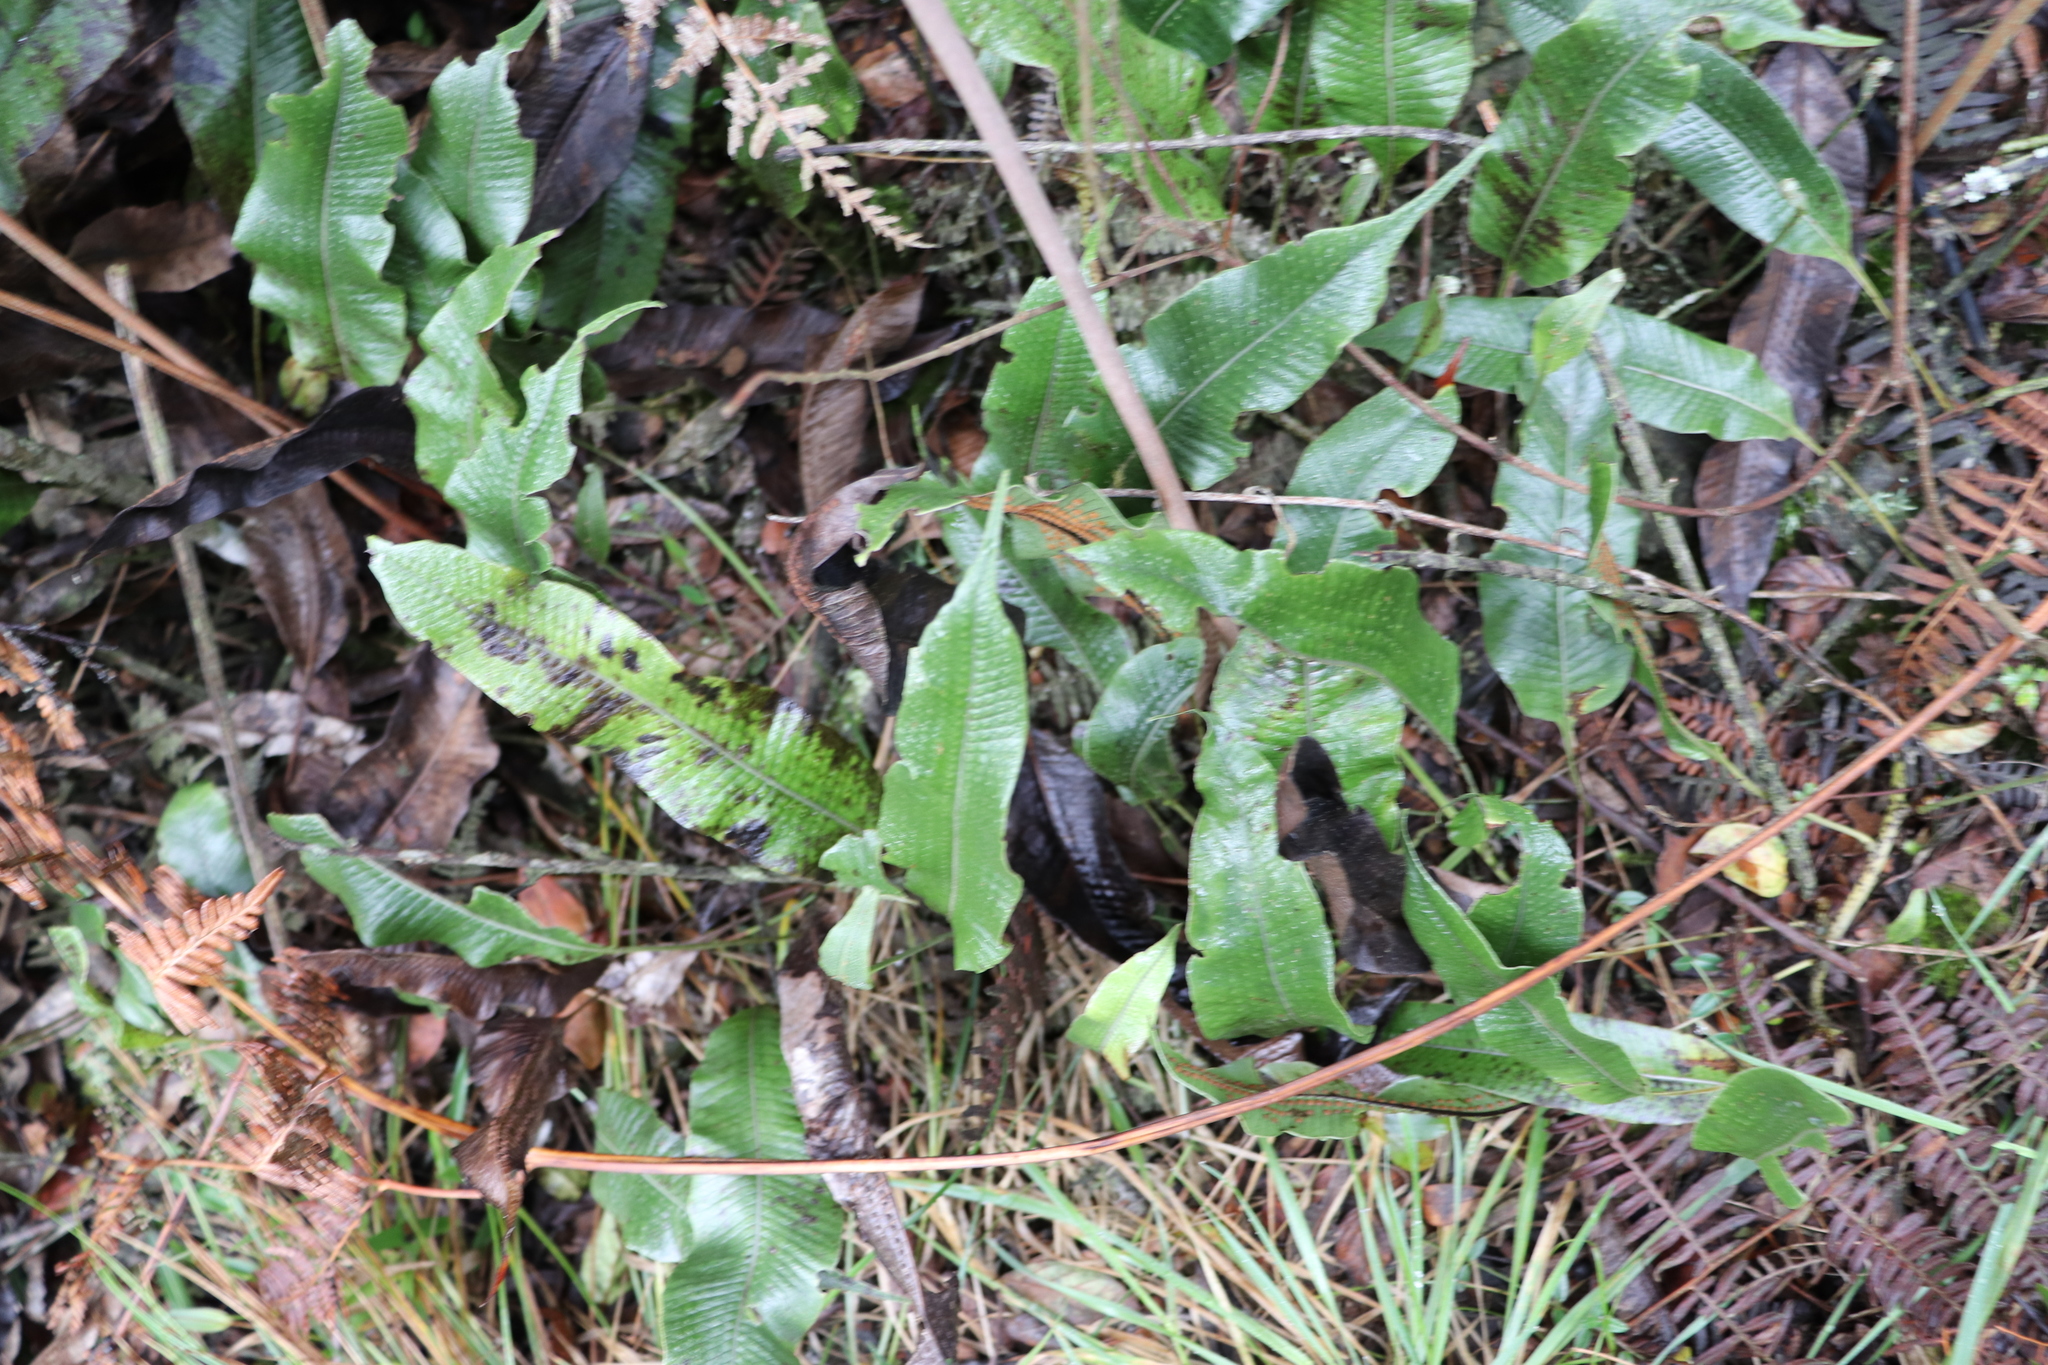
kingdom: Plantae
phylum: Tracheophyta
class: Polypodiopsida
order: Polypodiales
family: Polypodiaceae
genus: Serpocaulon
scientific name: Serpocaulon levigatum
